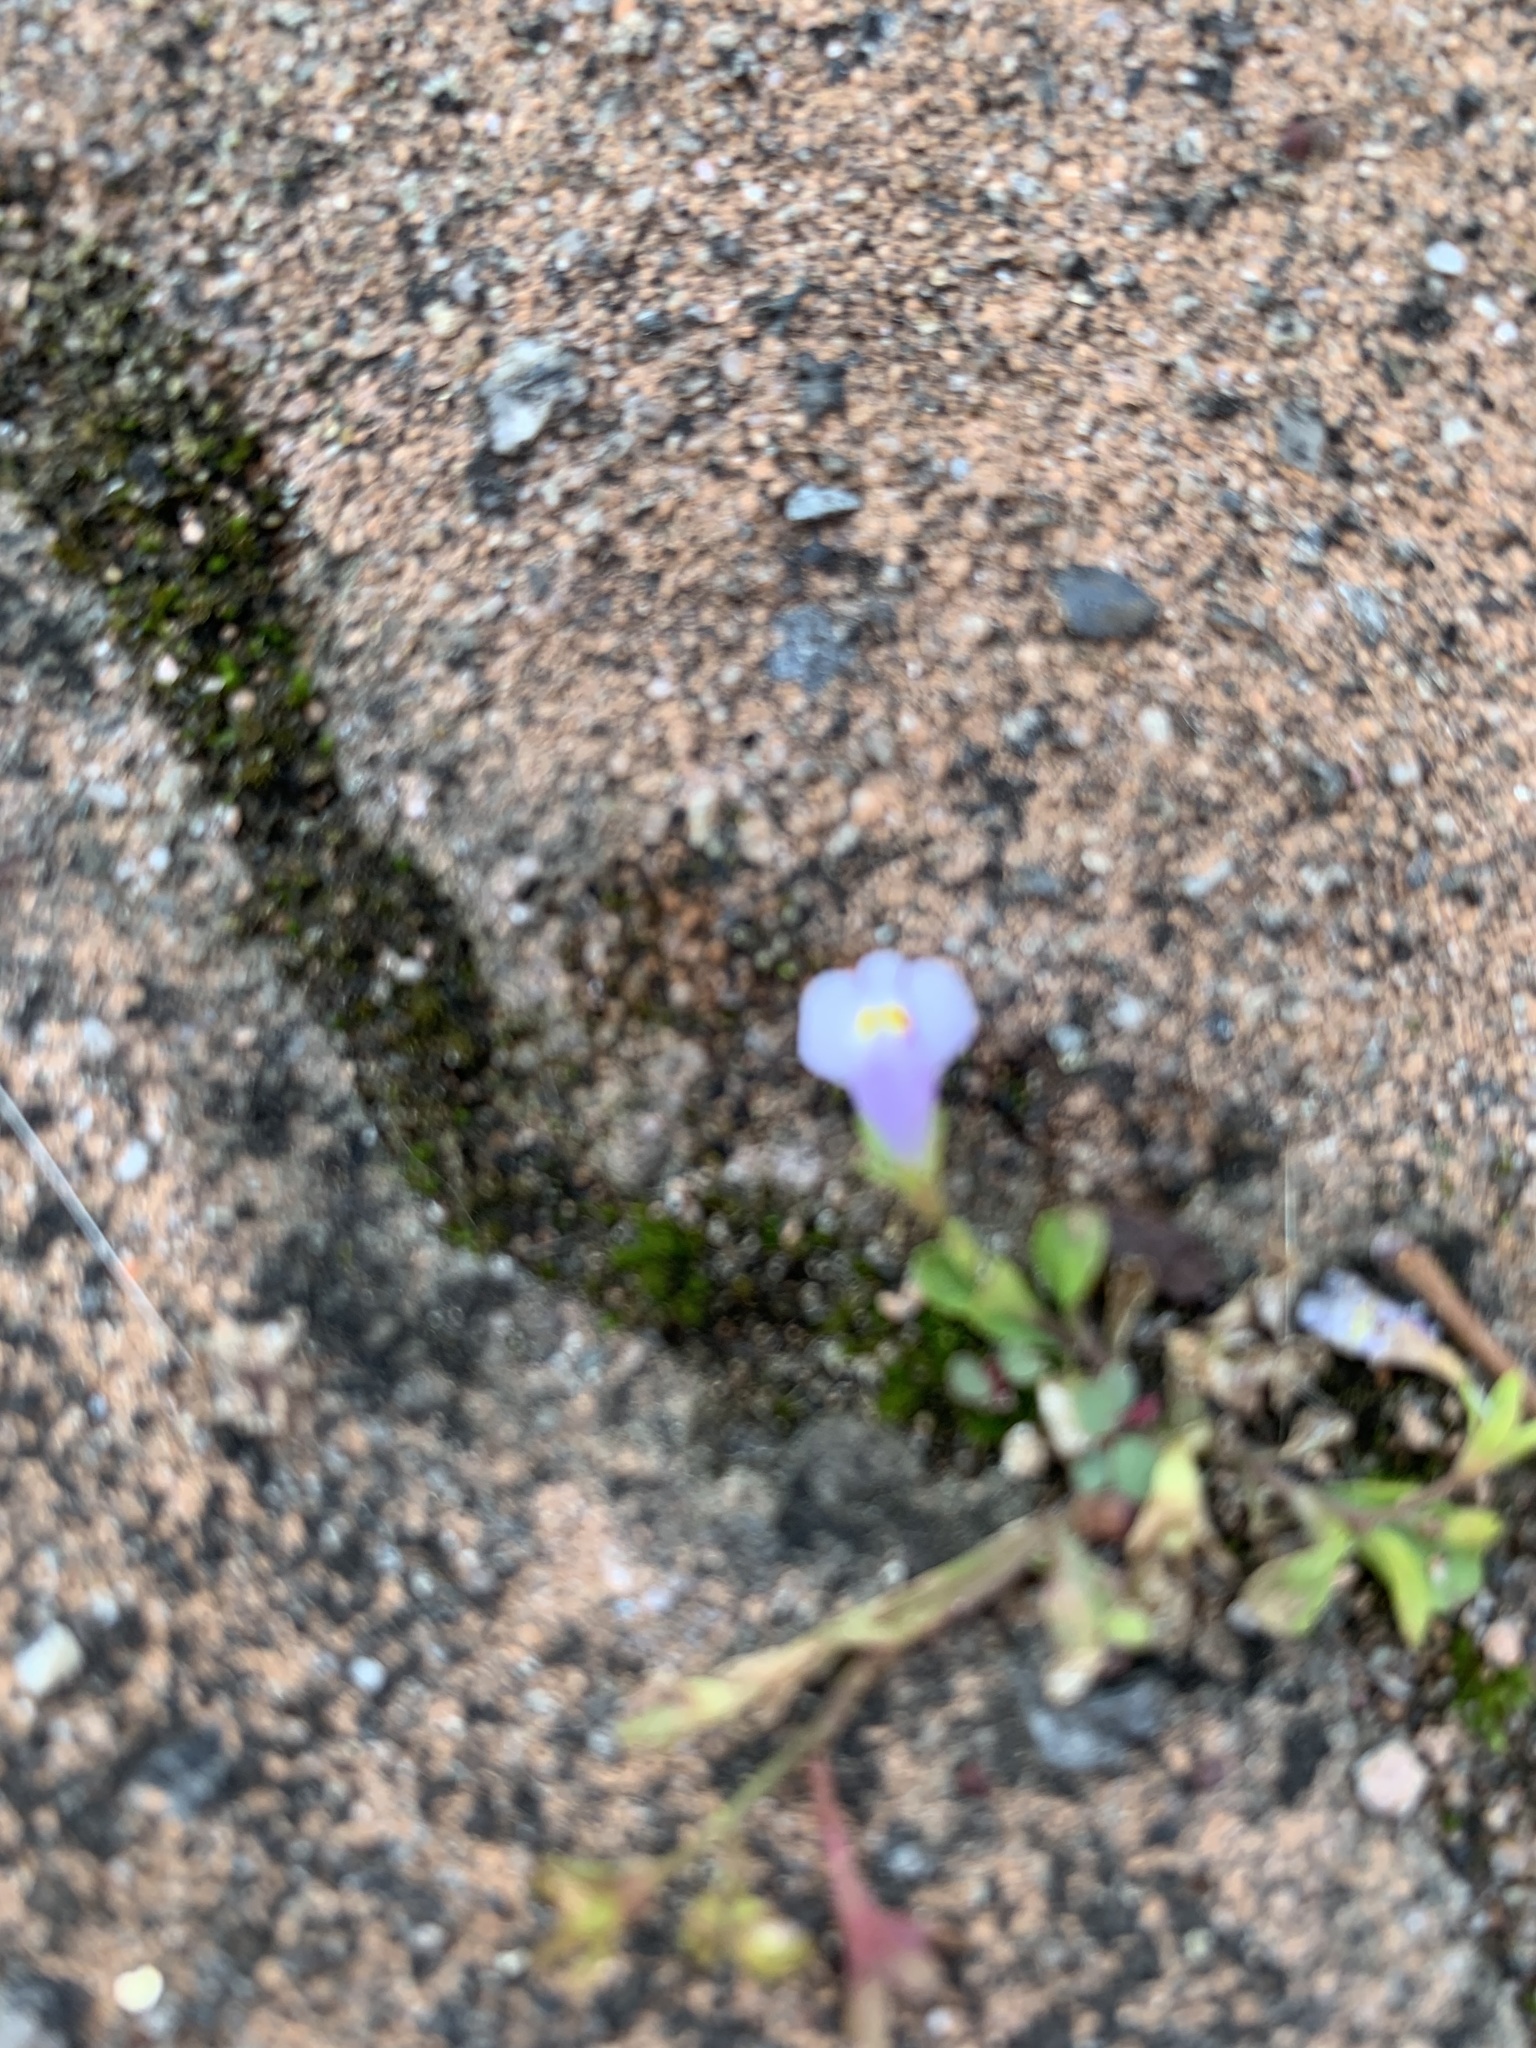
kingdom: Plantae
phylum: Tracheophyta
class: Magnoliopsida
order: Lamiales
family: Mazaceae
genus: Mazus
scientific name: Mazus pumilus
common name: Japanese mazus
